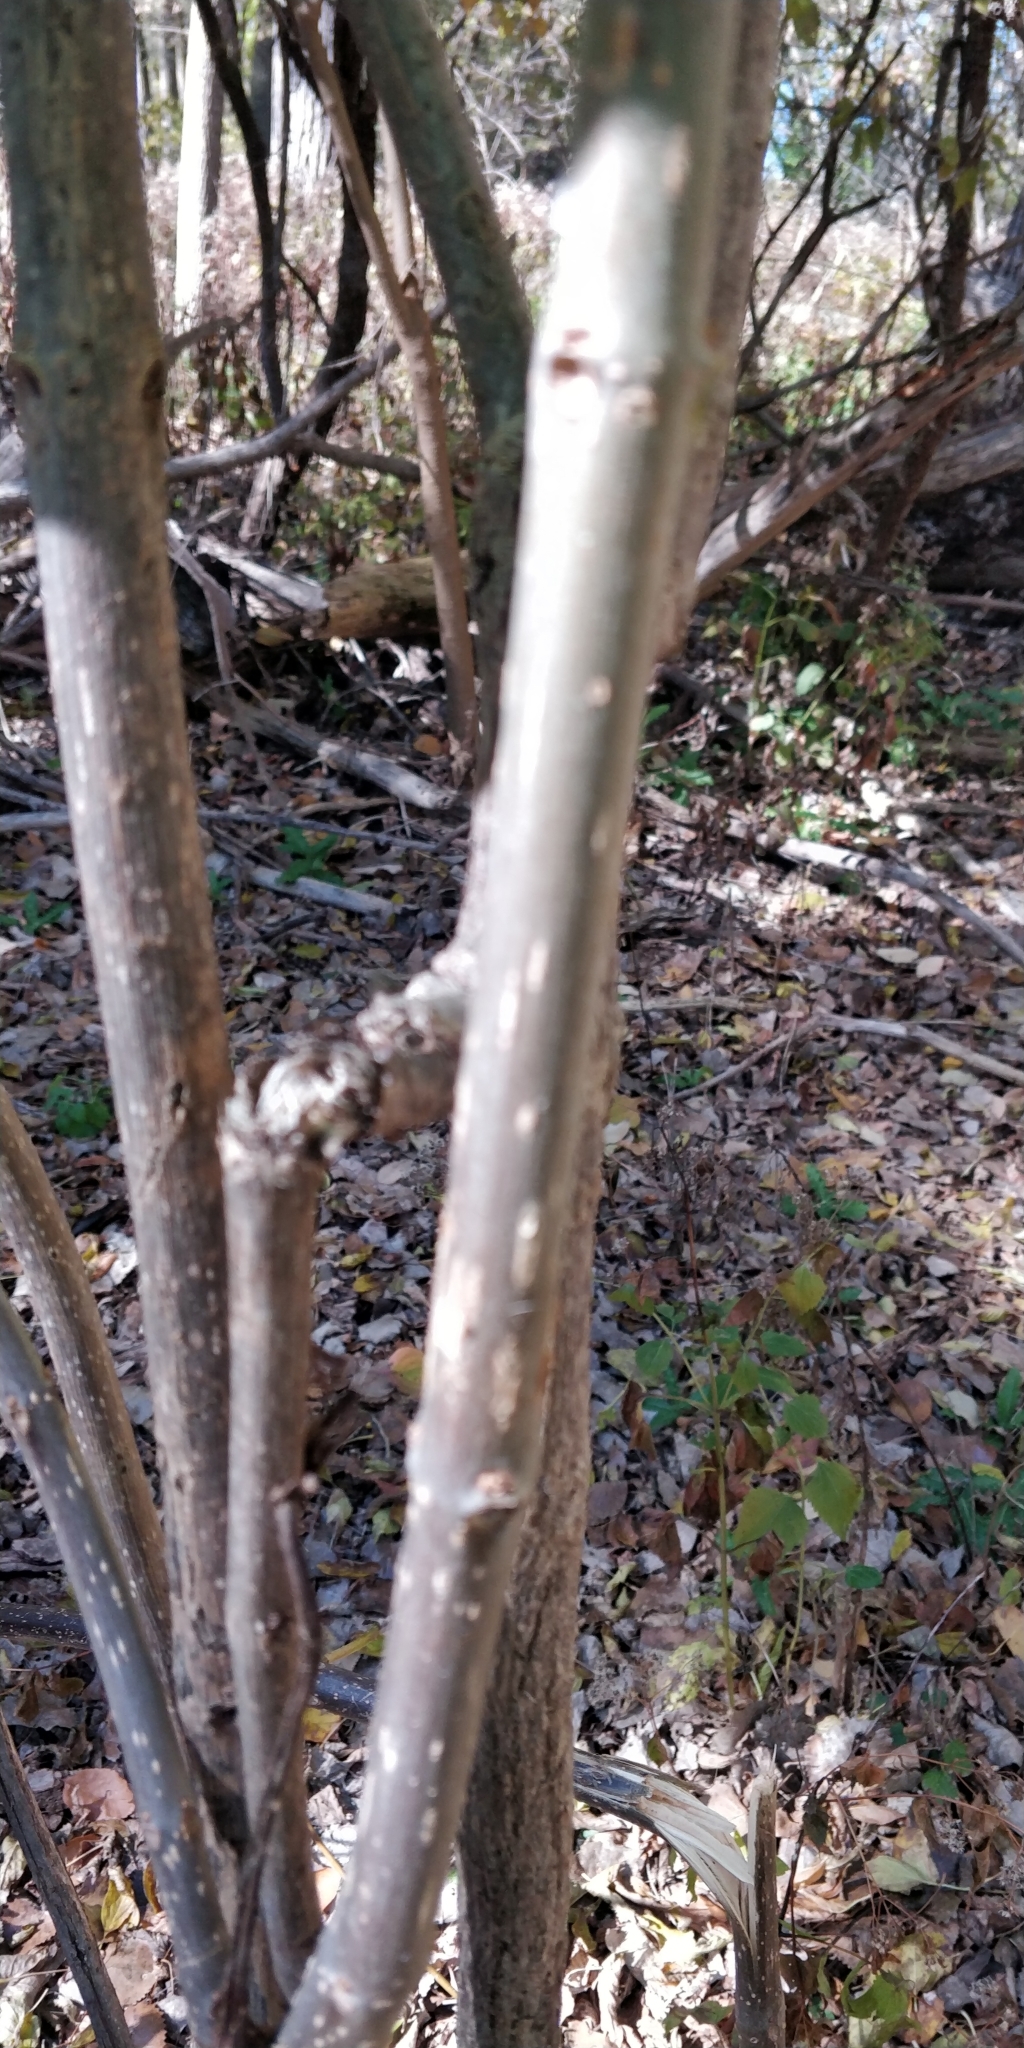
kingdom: Plantae
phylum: Tracheophyta
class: Magnoliopsida
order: Lamiales
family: Bignoniaceae
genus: Catalpa
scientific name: Catalpa speciosa
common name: Northern catalpa
